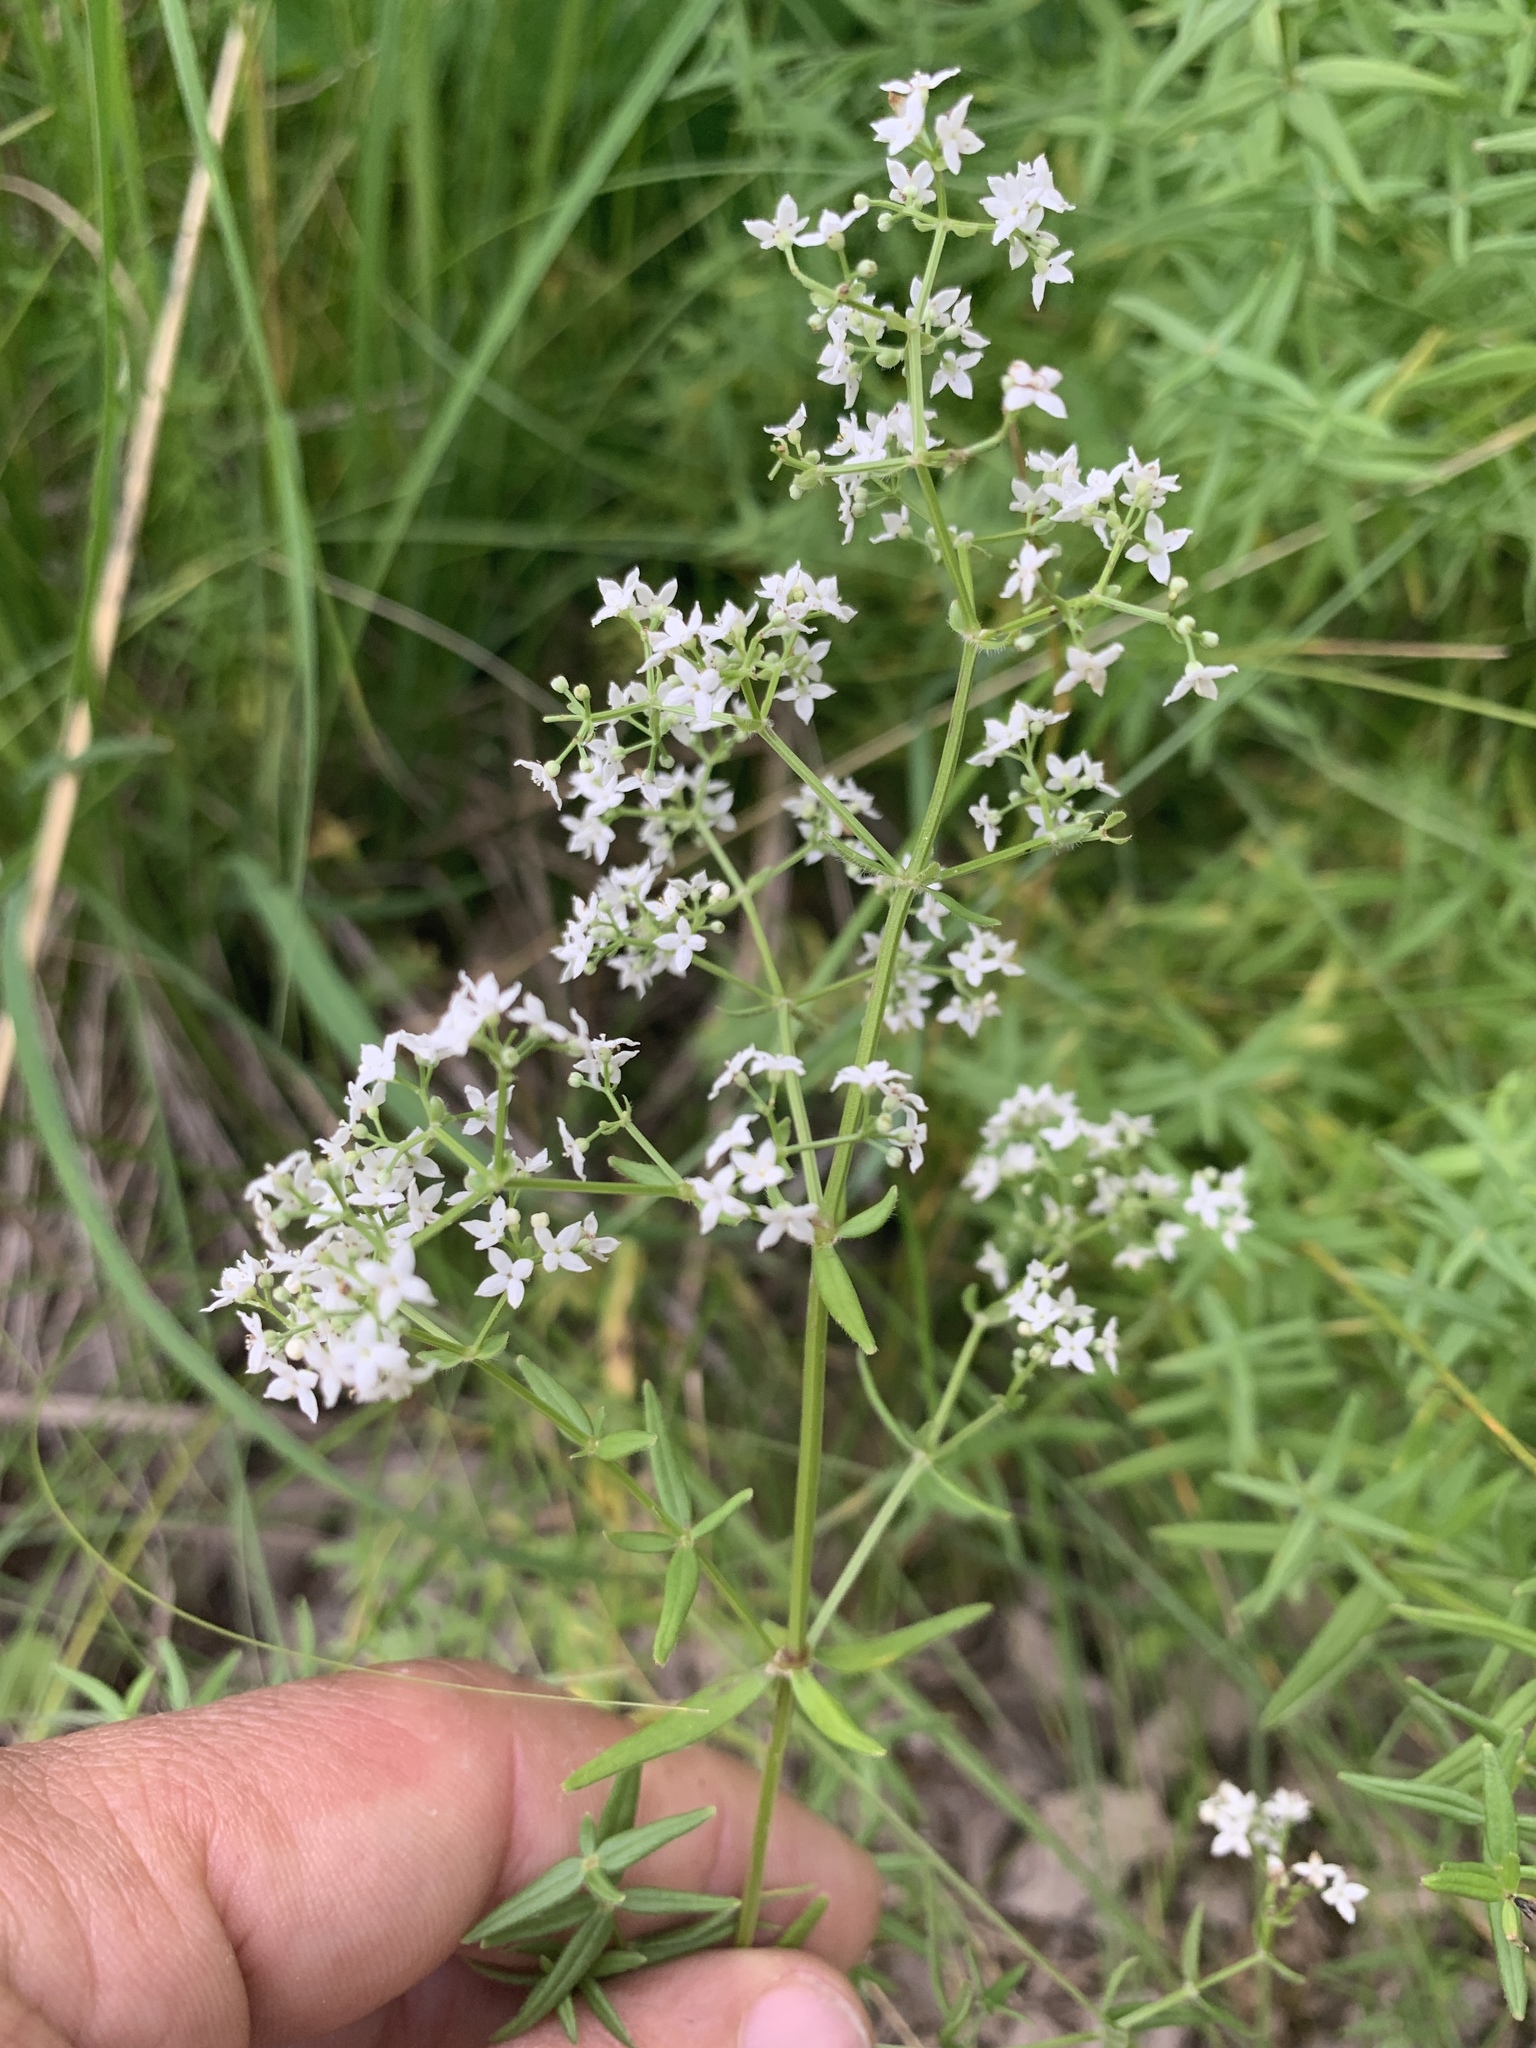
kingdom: Plantae
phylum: Tracheophyta
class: Magnoliopsida
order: Gentianales
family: Rubiaceae
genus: Galium
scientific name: Galium boreale
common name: Northern bedstraw
